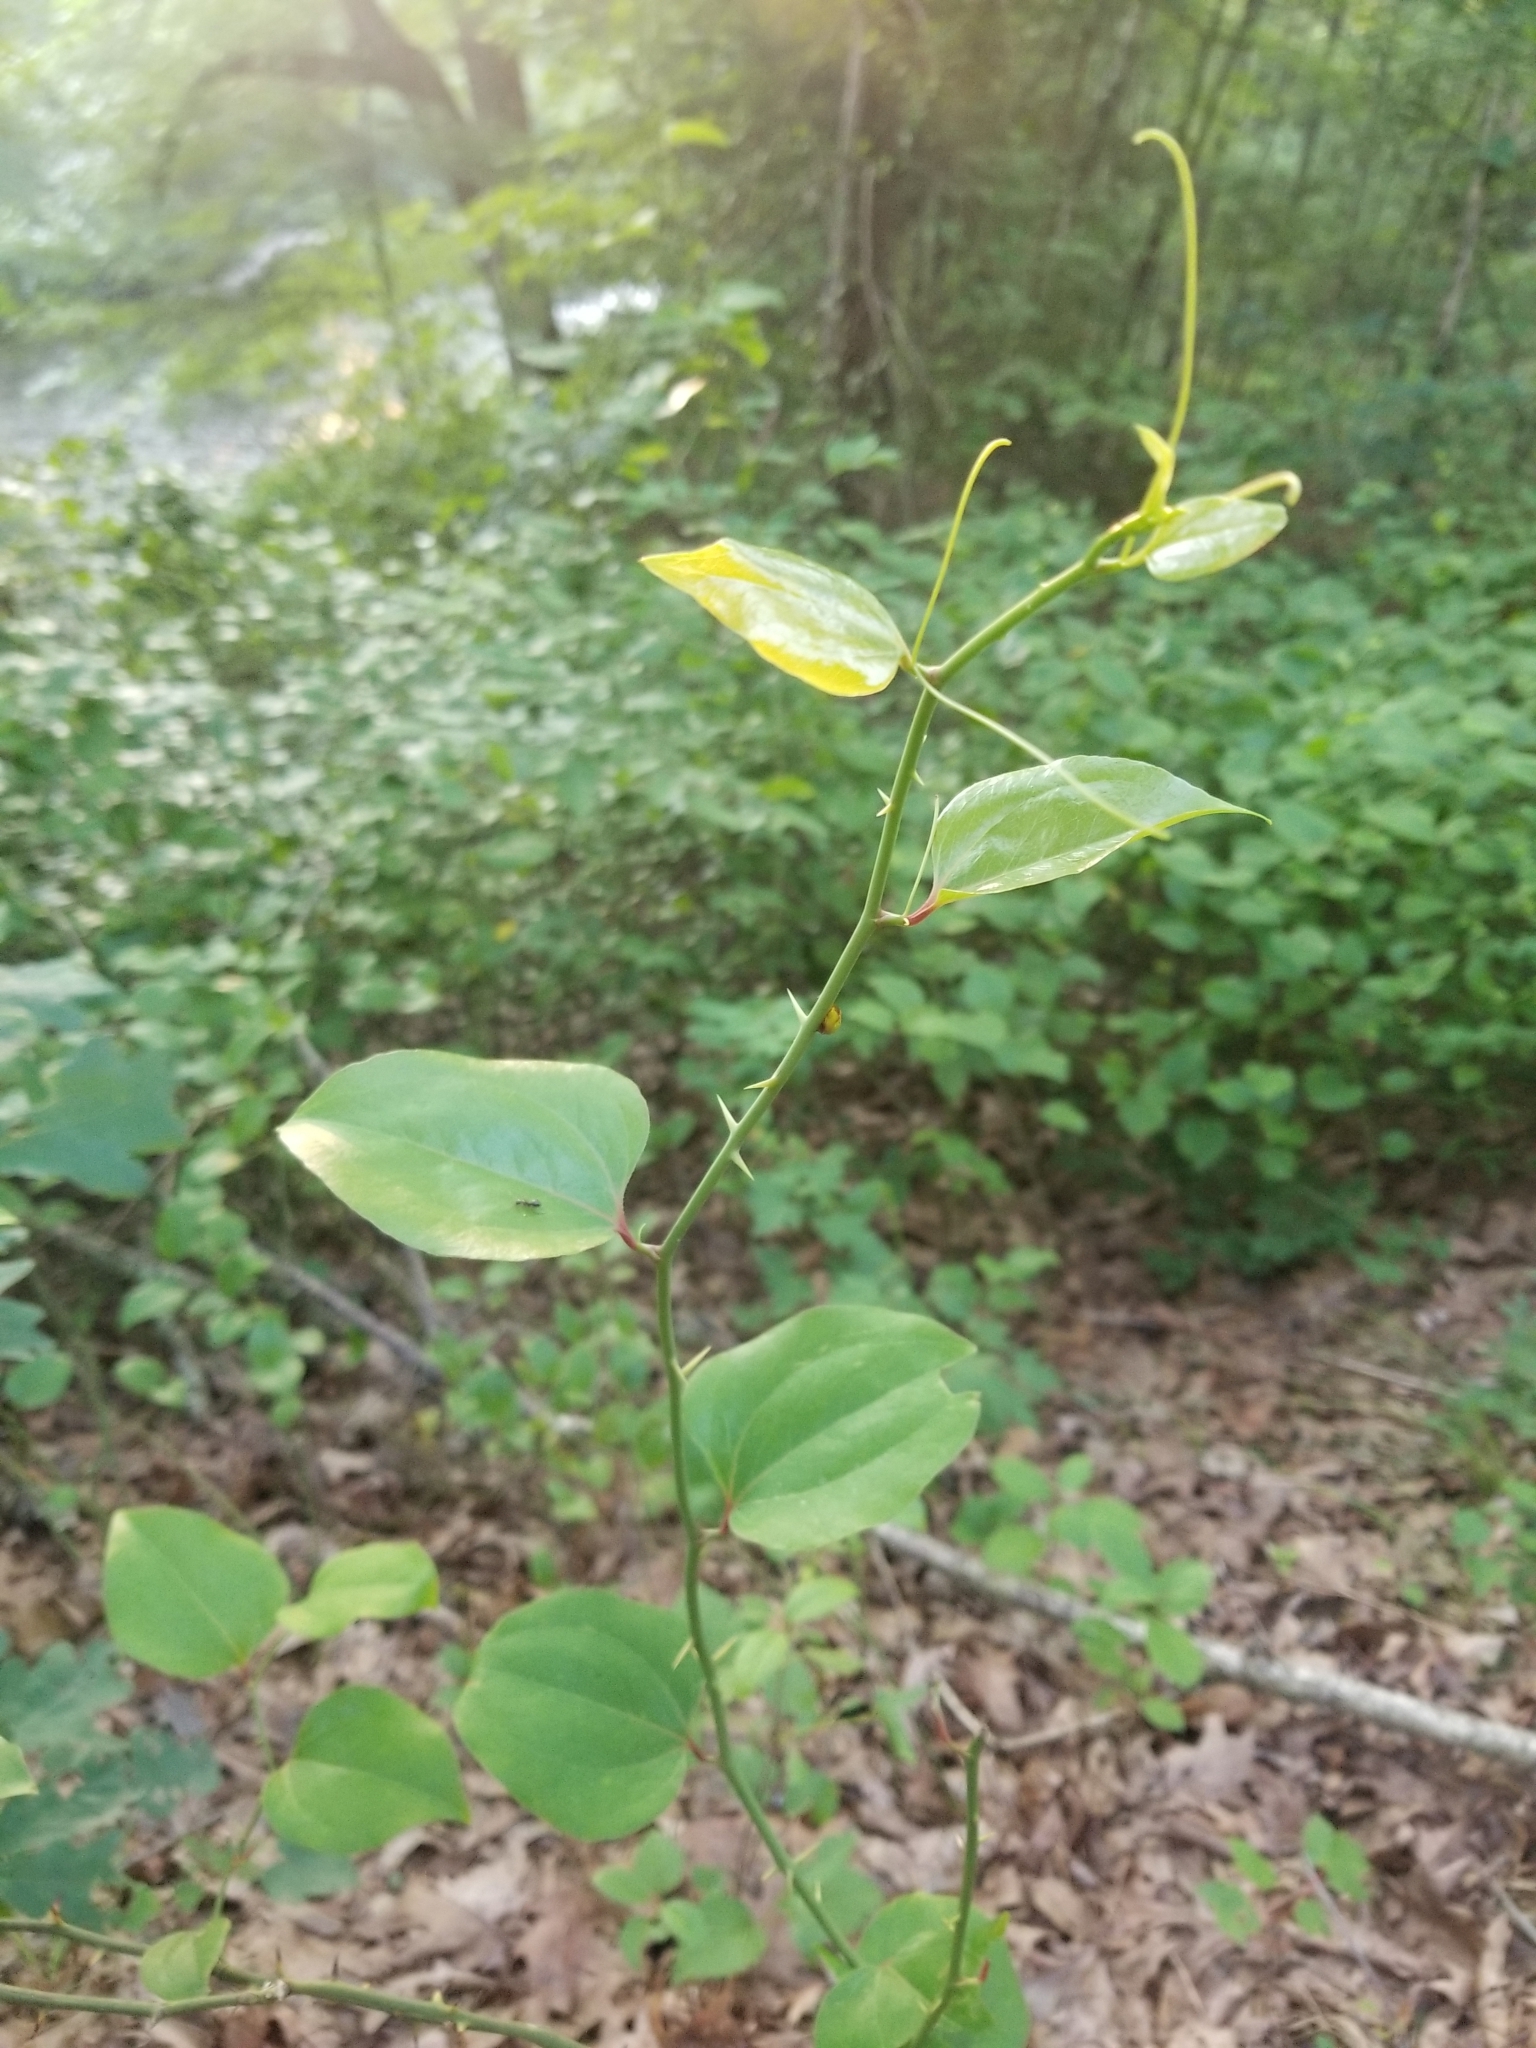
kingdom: Plantae
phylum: Tracheophyta
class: Liliopsida
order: Liliales
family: Smilacaceae
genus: Smilax
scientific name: Smilax rotundifolia
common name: Bullbriar
